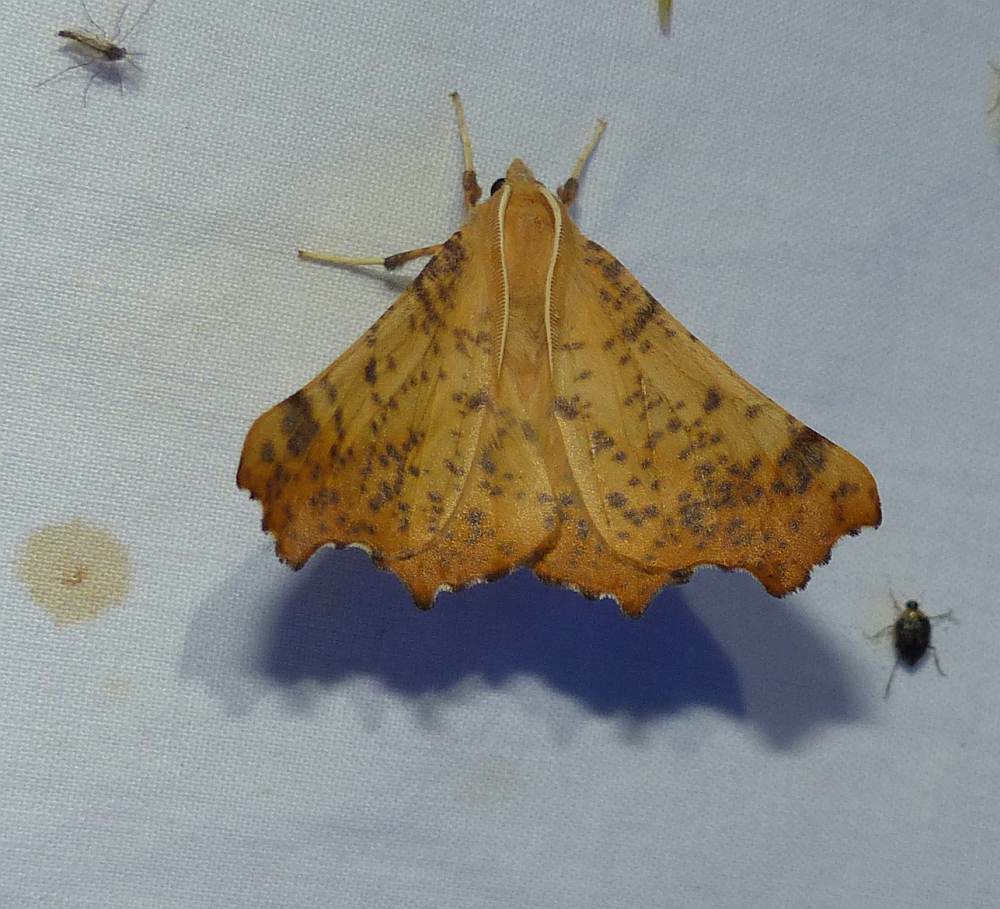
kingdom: Animalia
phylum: Arthropoda
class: Insecta
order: Lepidoptera
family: Geometridae
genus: Ennomos
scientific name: Ennomos magnaria
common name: Maple spanworm
